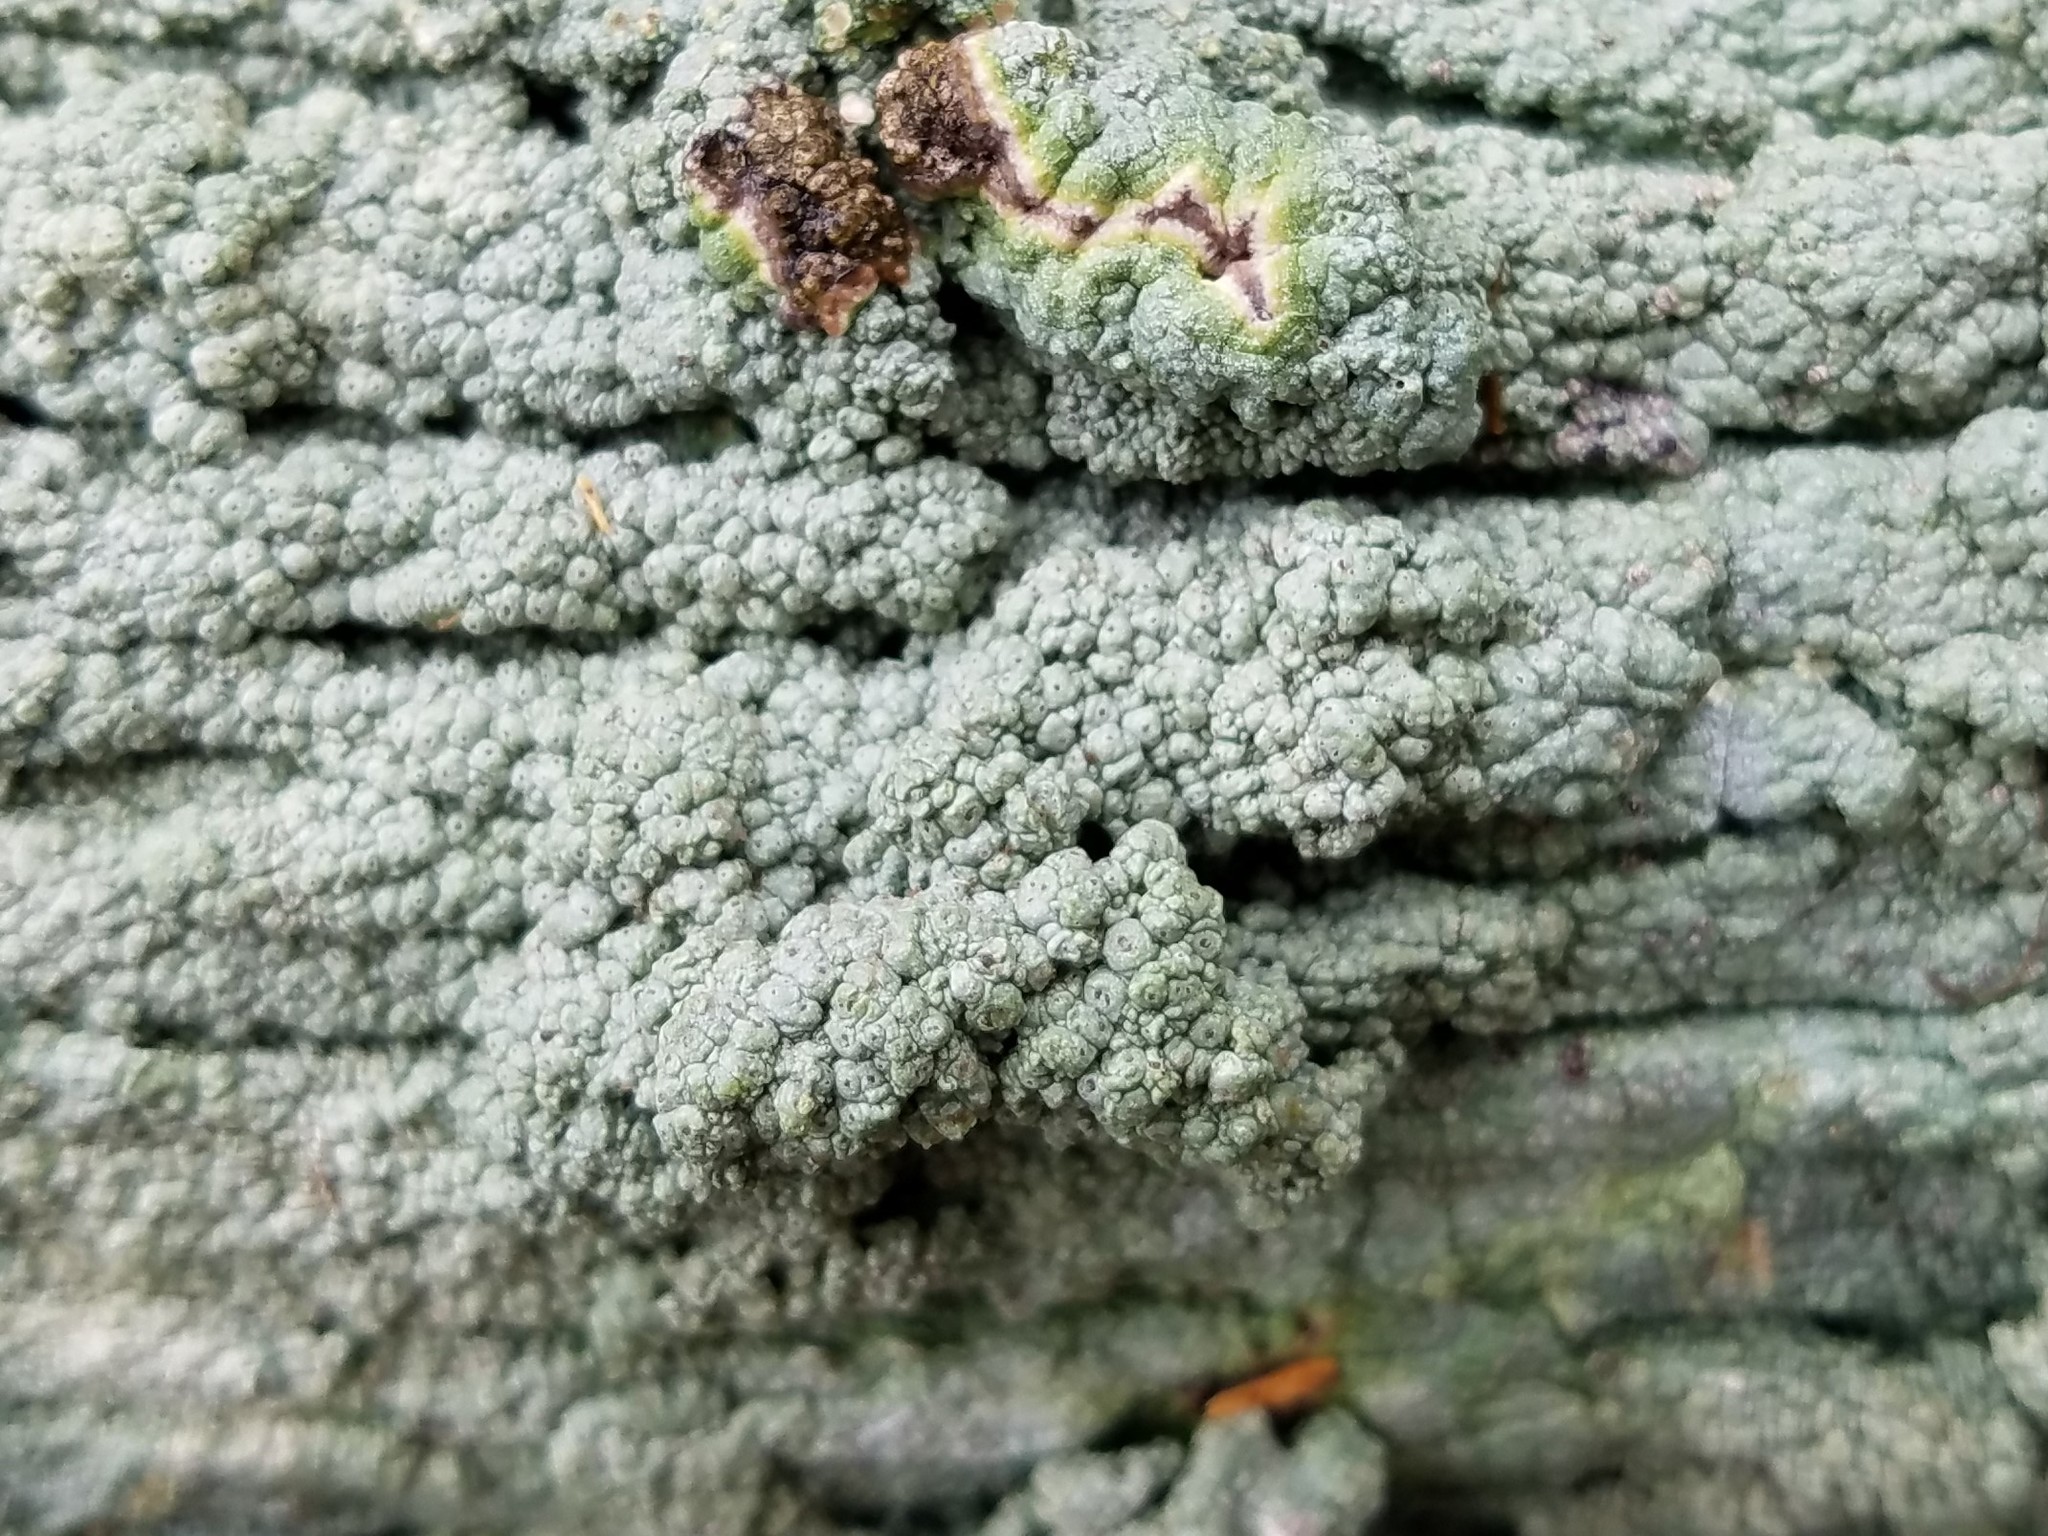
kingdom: Fungi
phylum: Ascomycota
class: Lecanoromycetes
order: Pertusariales
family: Pertusariaceae
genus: Pertusaria
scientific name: Pertusaria ostiolata
